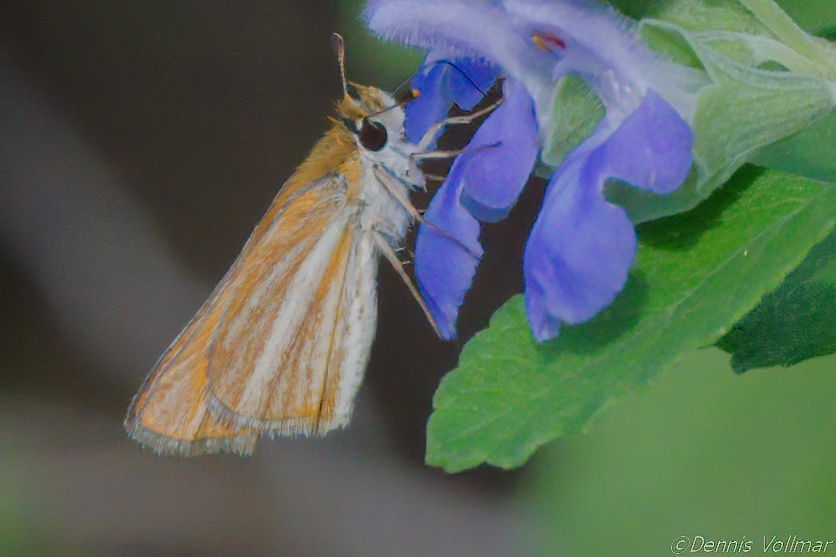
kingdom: Animalia
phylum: Arthropoda
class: Insecta
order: Lepidoptera
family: Hesperiidae
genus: Copaeodes
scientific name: Copaeodes minima
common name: Southern skipperling
